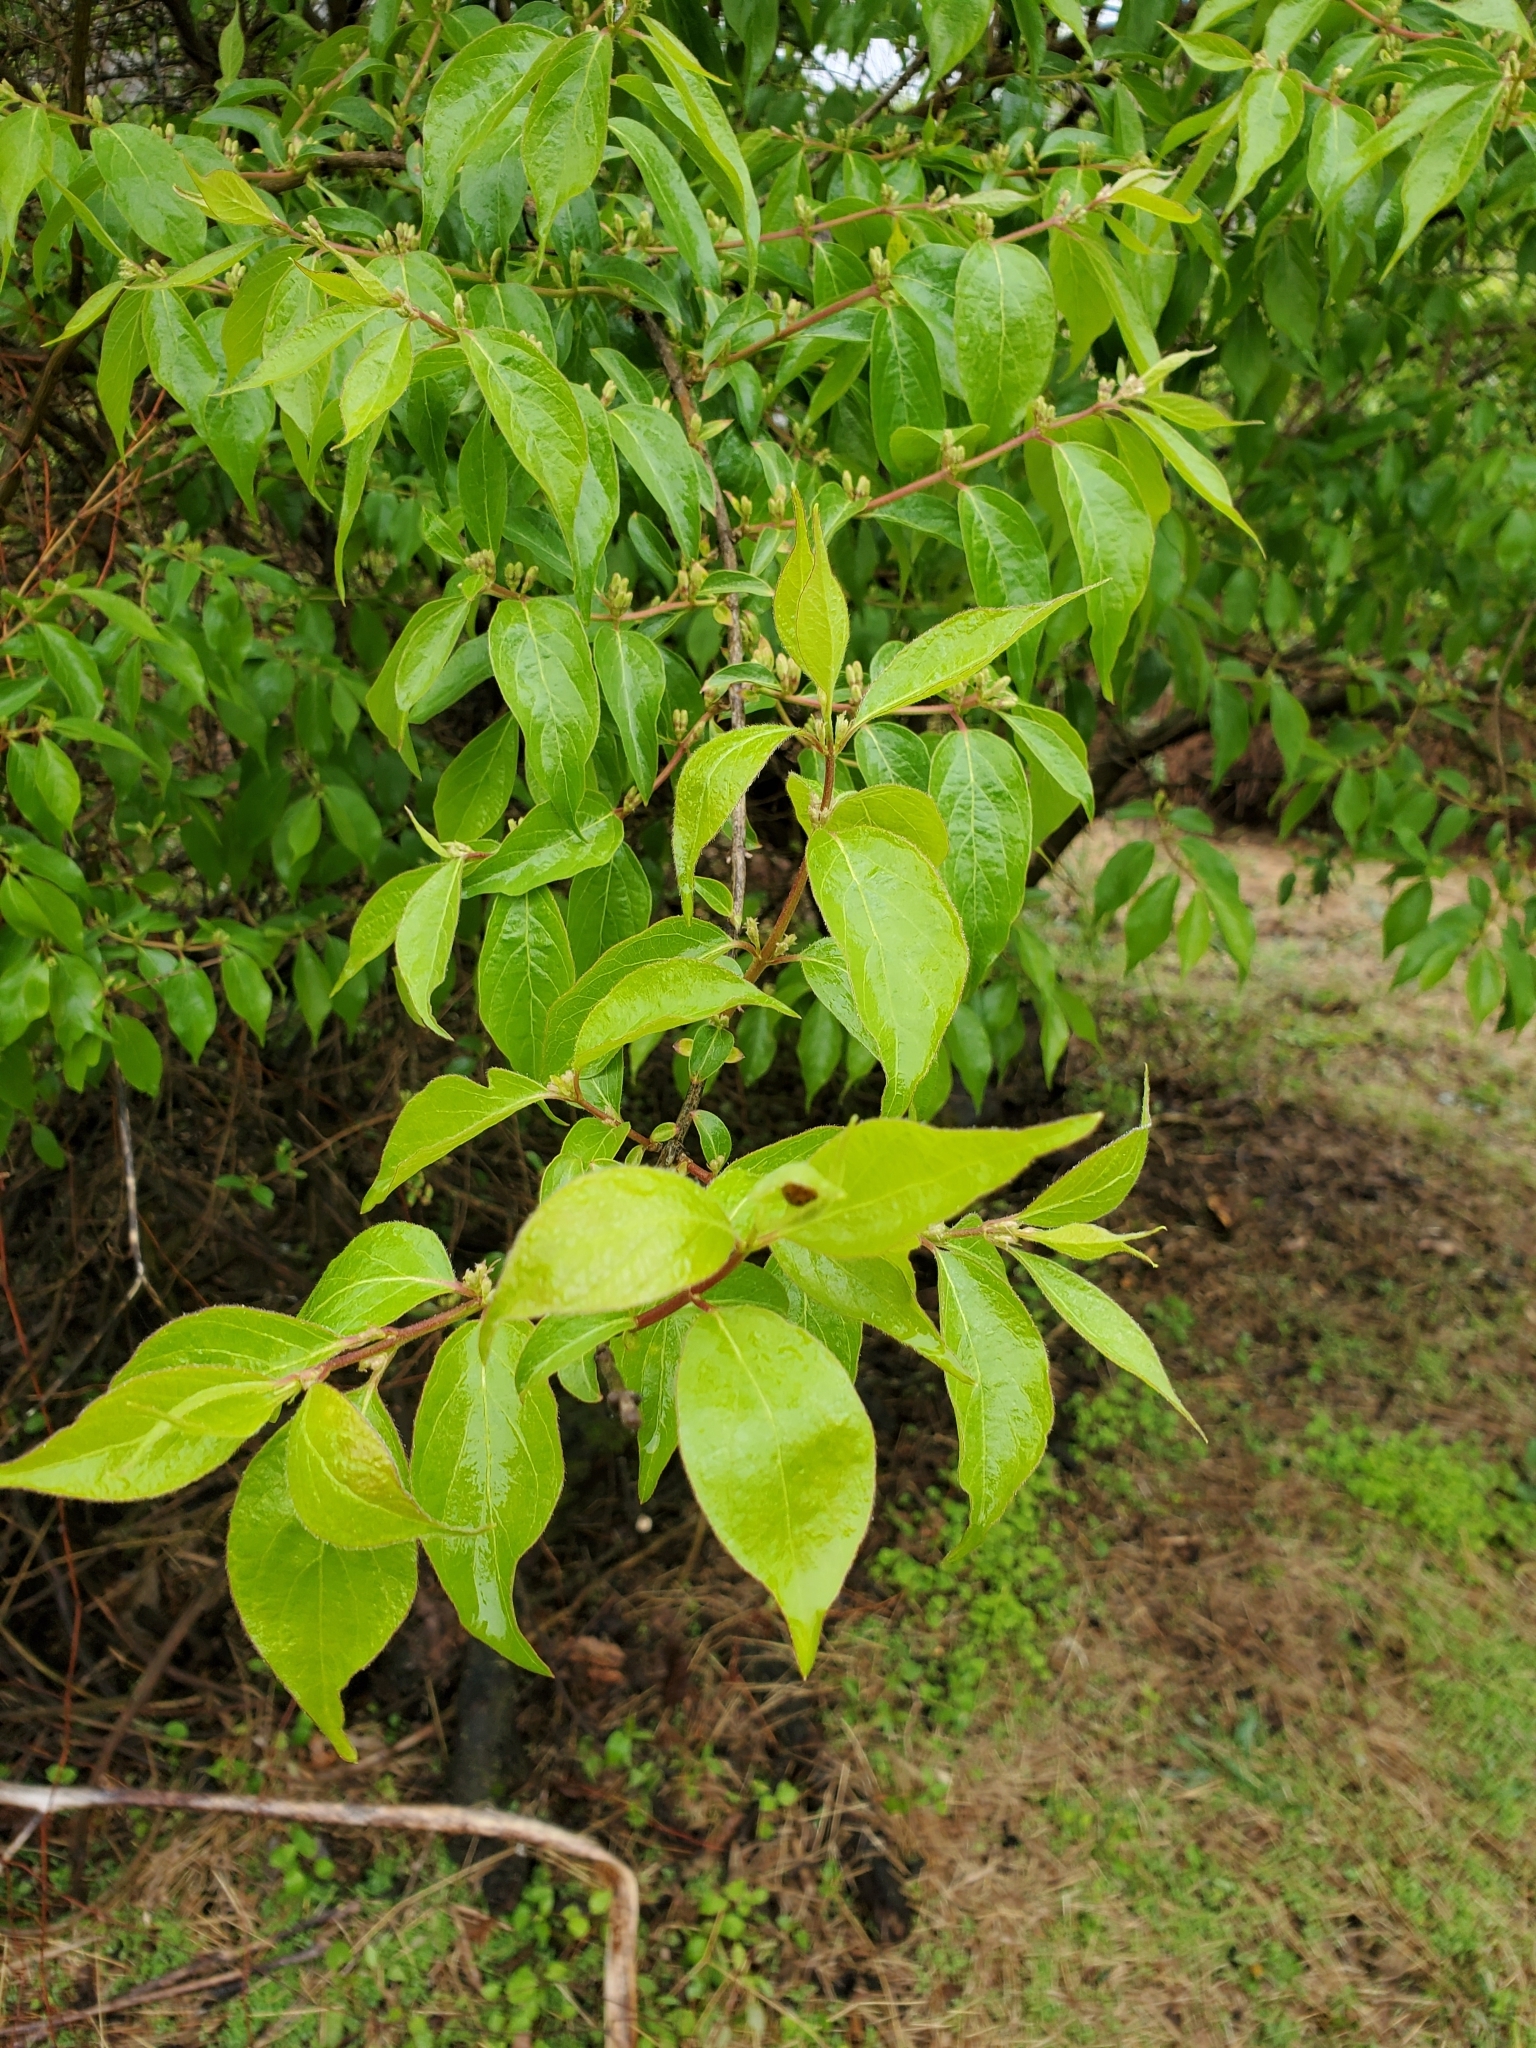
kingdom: Plantae
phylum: Tracheophyta
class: Magnoliopsida
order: Dipsacales
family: Caprifoliaceae
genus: Lonicera
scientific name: Lonicera maackii
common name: Amur honeysuckle
